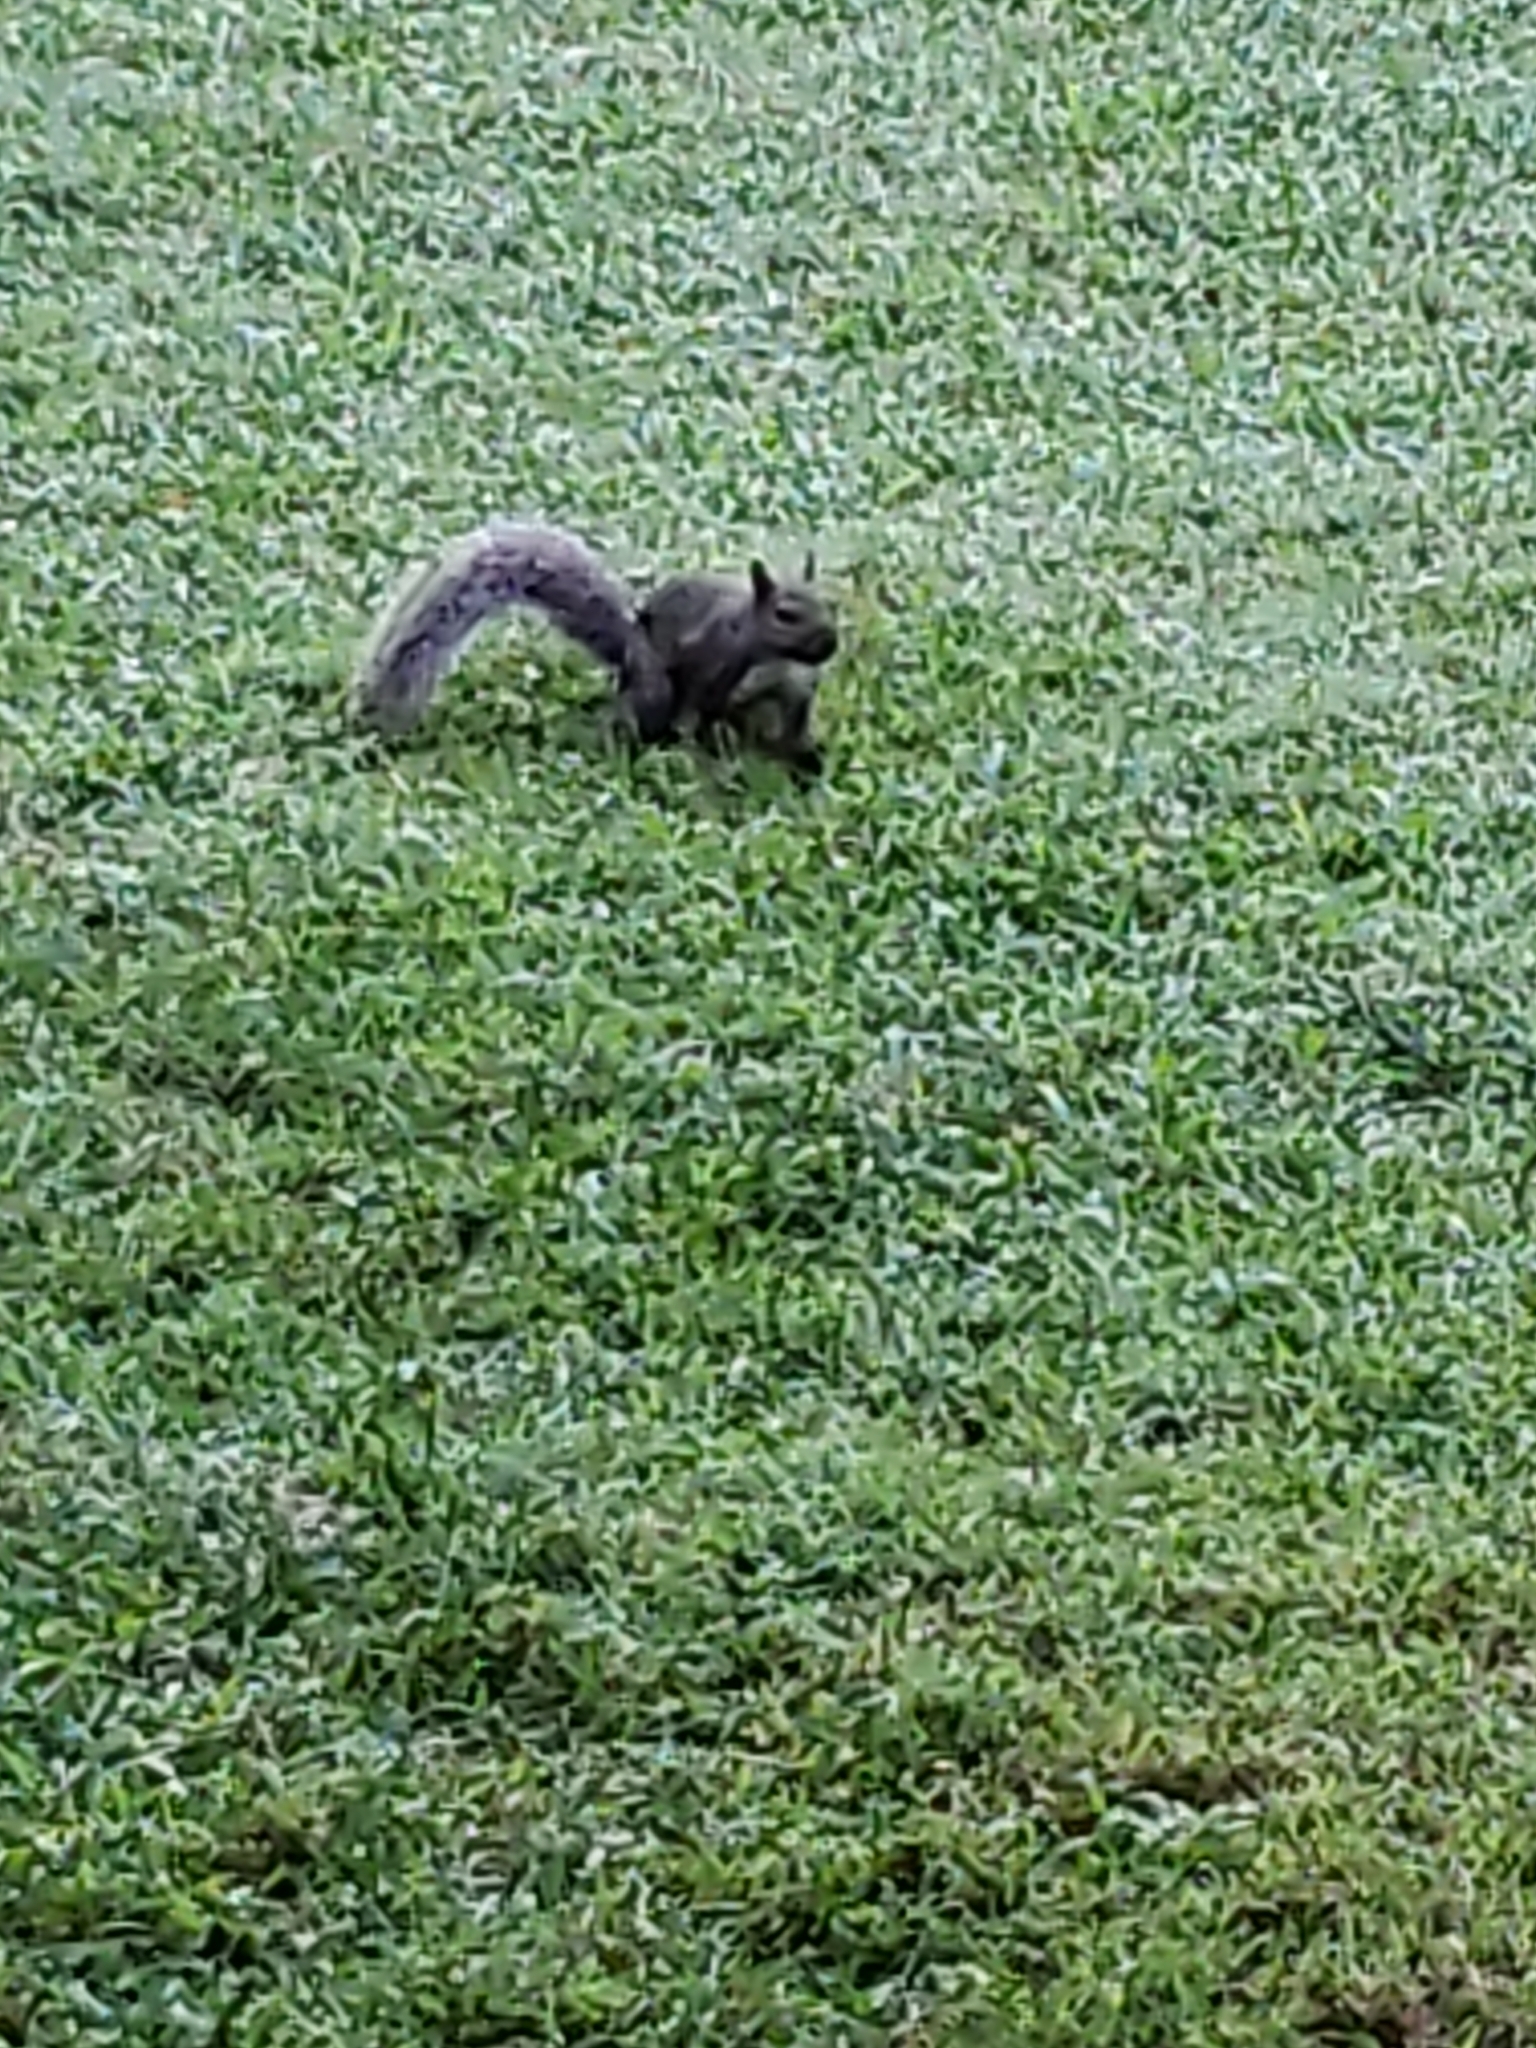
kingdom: Animalia
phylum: Chordata
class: Mammalia
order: Rodentia
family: Sciuridae
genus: Sciurus
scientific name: Sciurus carolinensis
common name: Eastern gray squirrel
